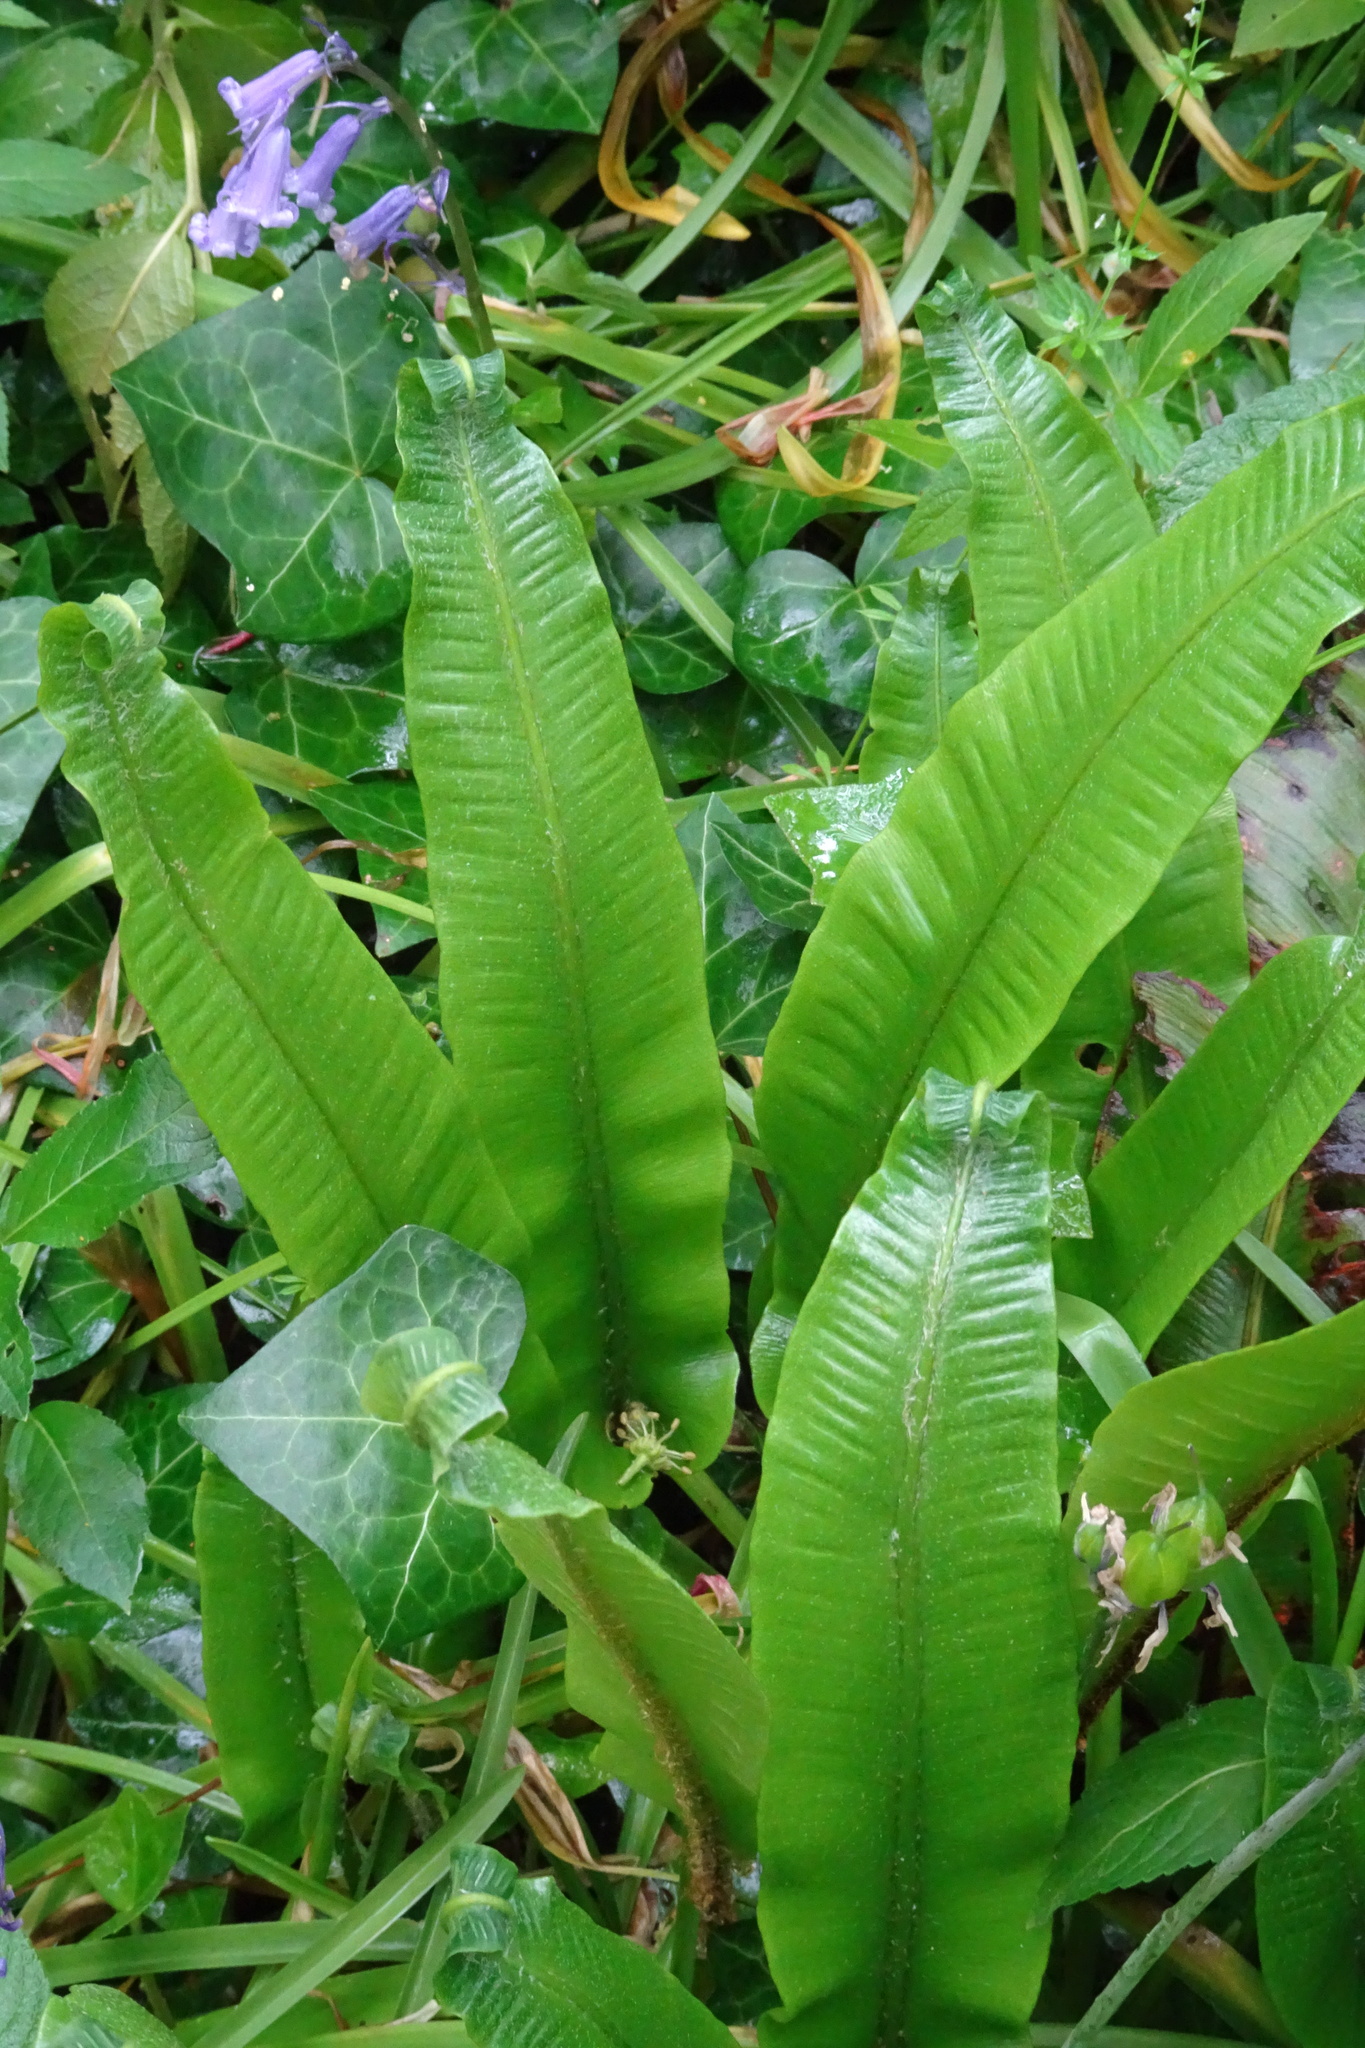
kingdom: Plantae
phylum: Tracheophyta
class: Polypodiopsida
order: Polypodiales
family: Aspleniaceae
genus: Asplenium
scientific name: Asplenium scolopendrium
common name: Hart's-tongue fern
